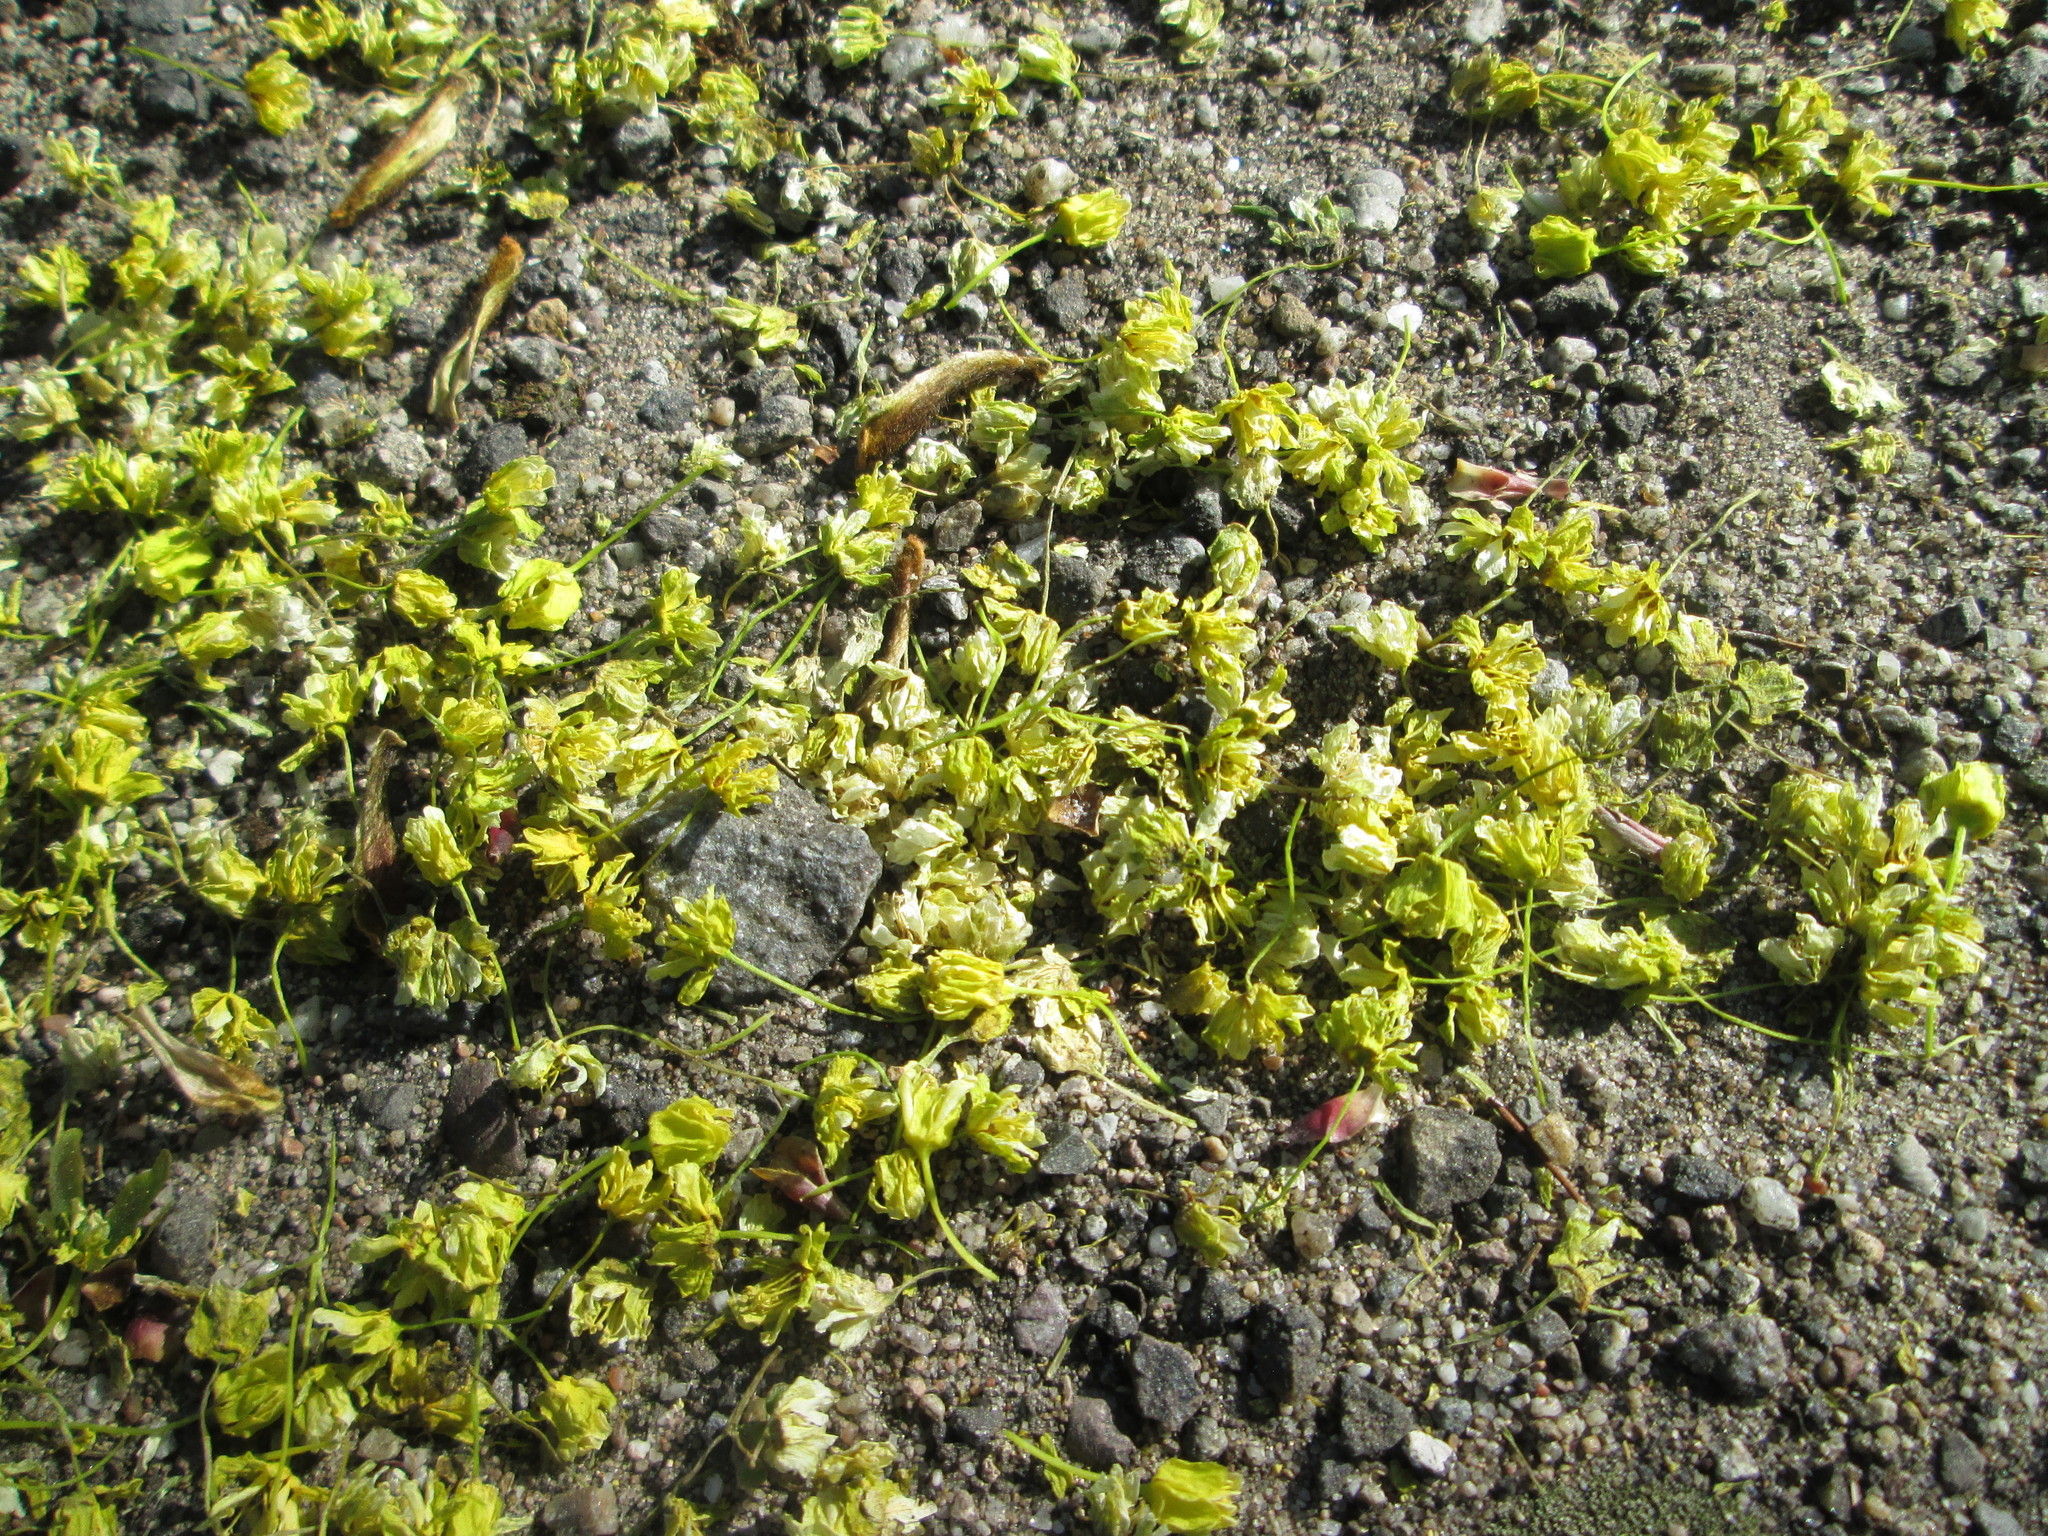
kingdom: Plantae
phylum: Tracheophyta
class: Magnoliopsida
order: Sapindales
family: Sapindaceae
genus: Acer
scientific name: Acer platanoides
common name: Norway maple
